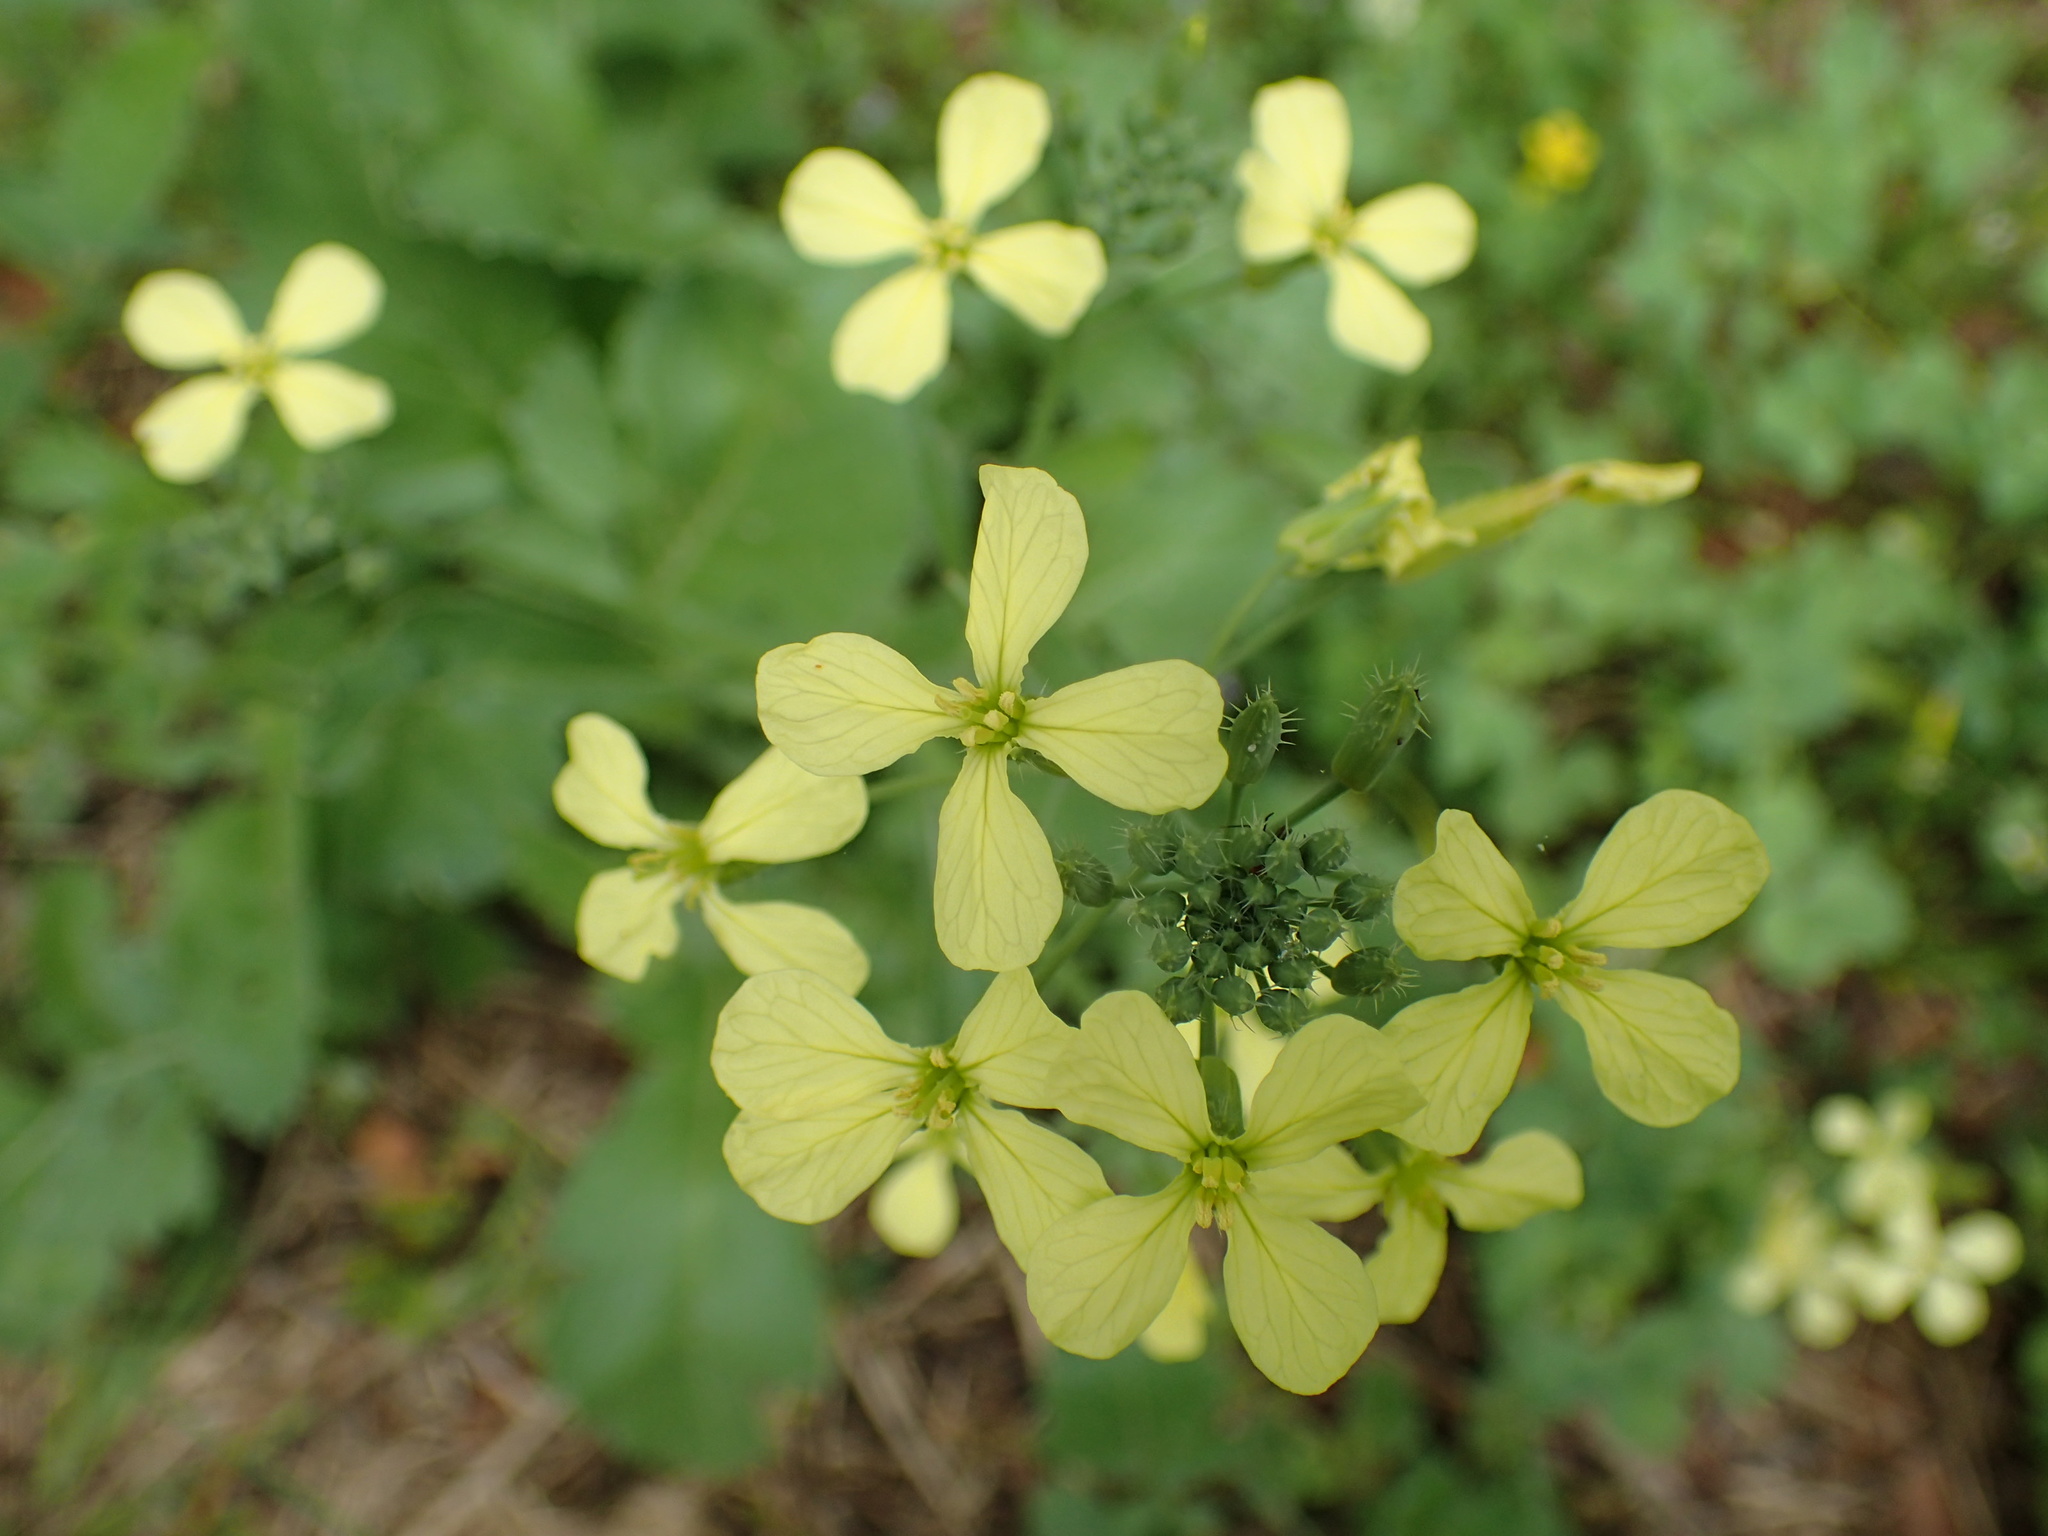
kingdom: Plantae
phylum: Tracheophyta
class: Magnoliopsida
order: Brassicales
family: Brassicaceae
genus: Raphanus
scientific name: Raphanus raphanistrum
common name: Wild radish
